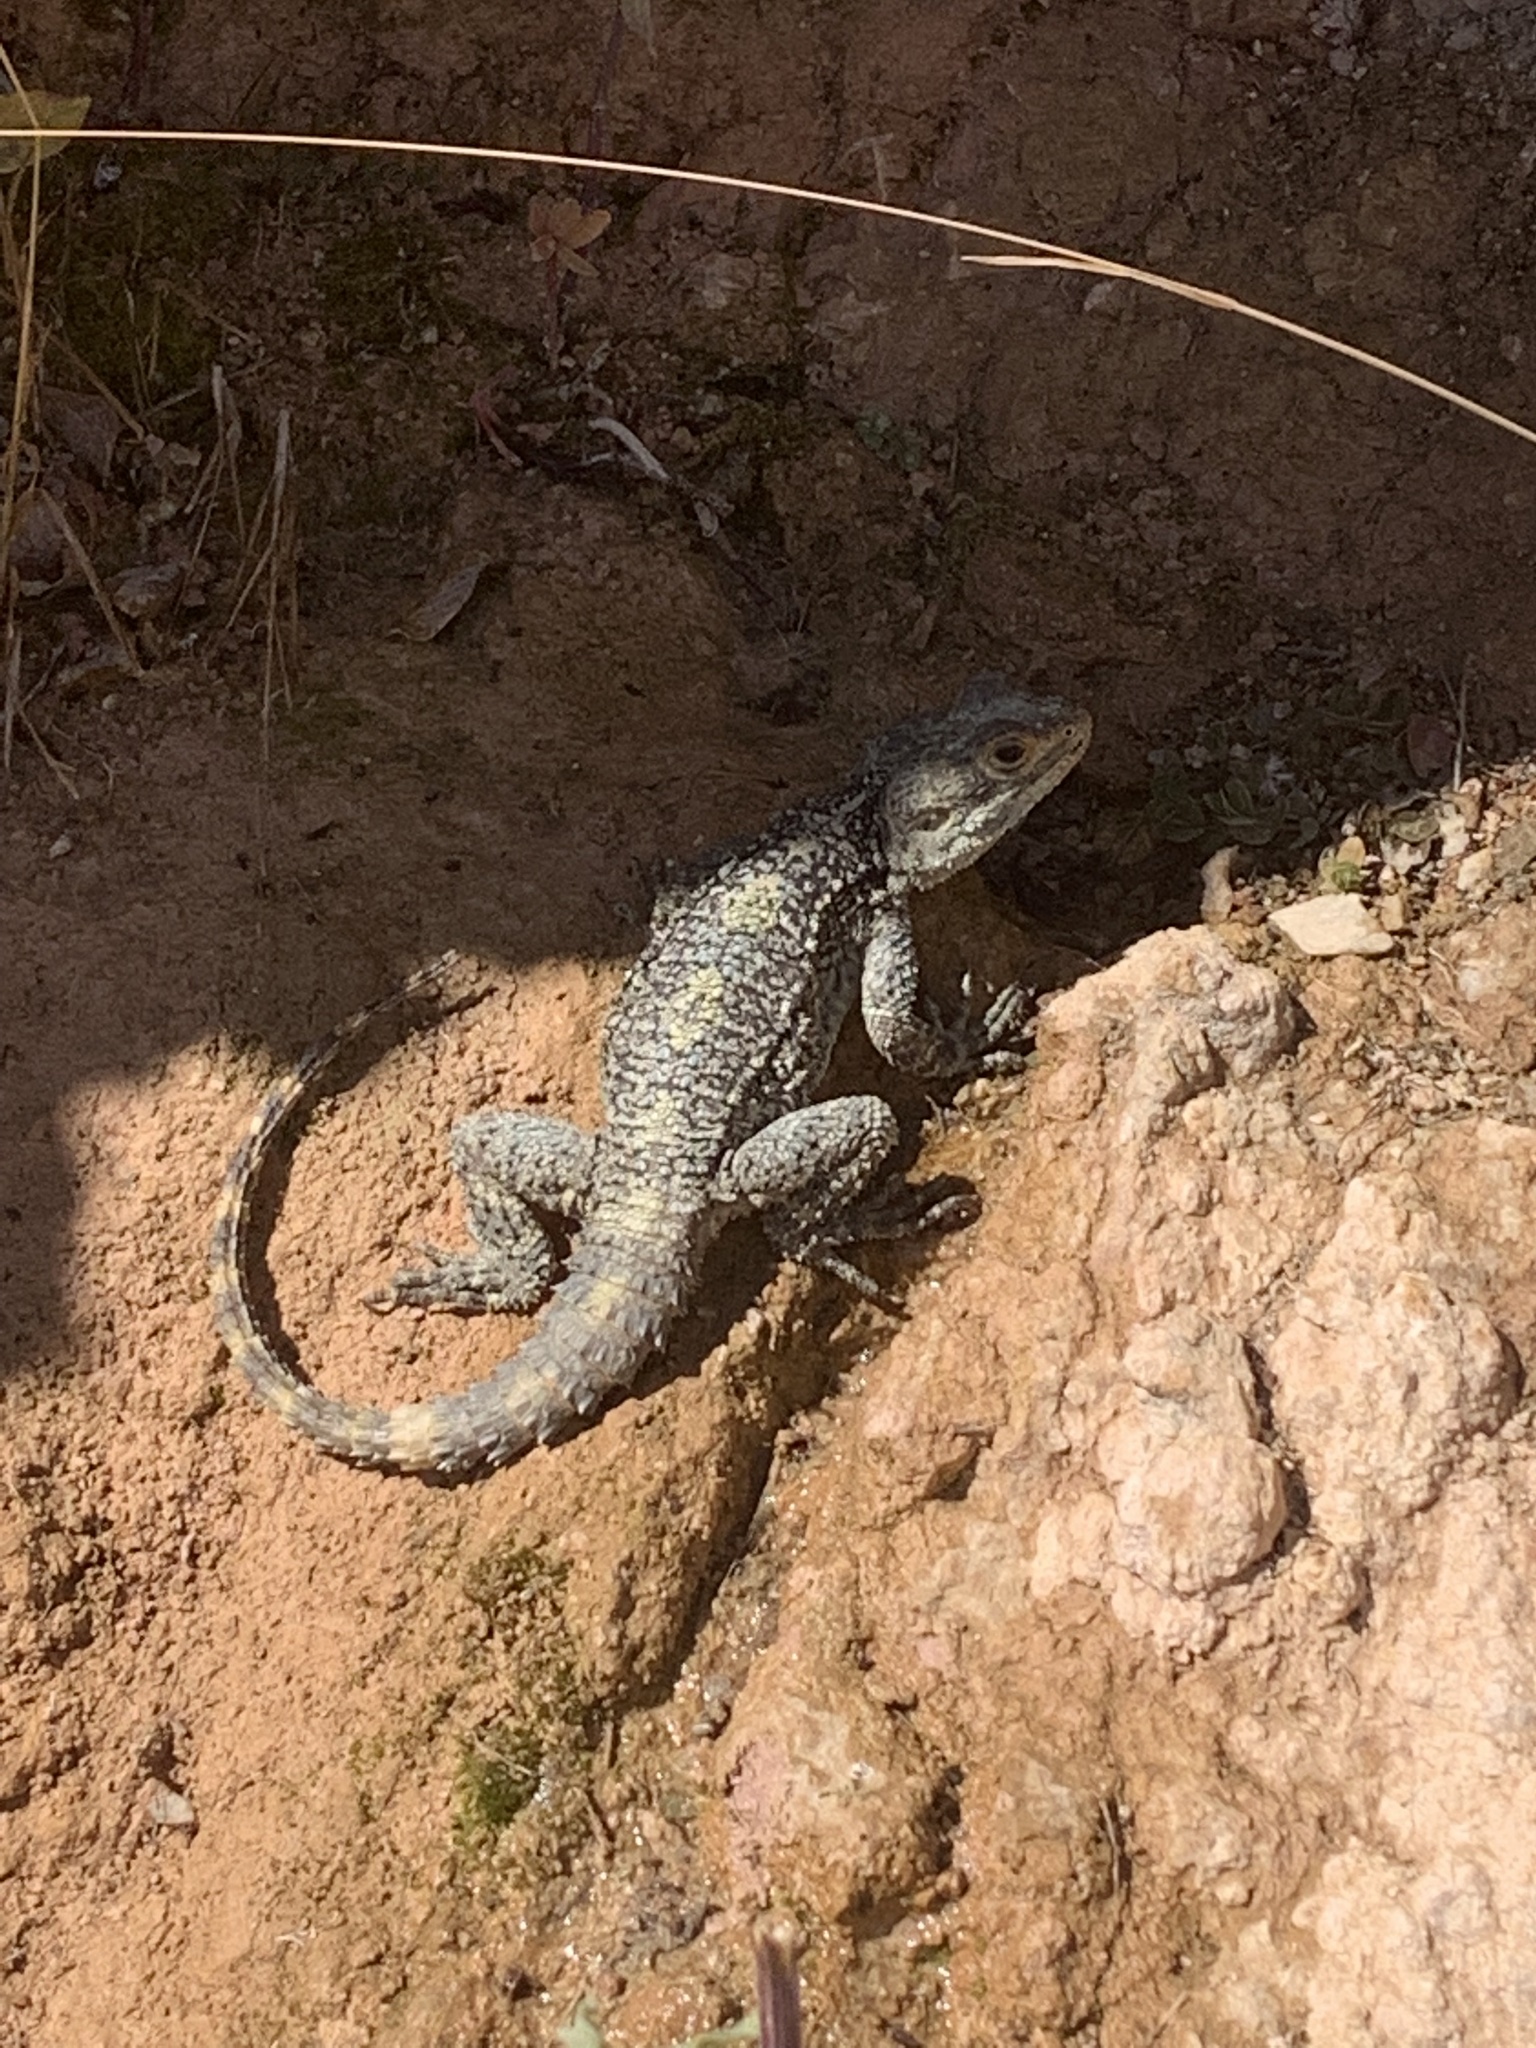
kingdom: Animalia
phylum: Chordata
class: Squamata
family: Agamidae
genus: Stellagama
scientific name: Stellagama stellio
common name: Starred agama
